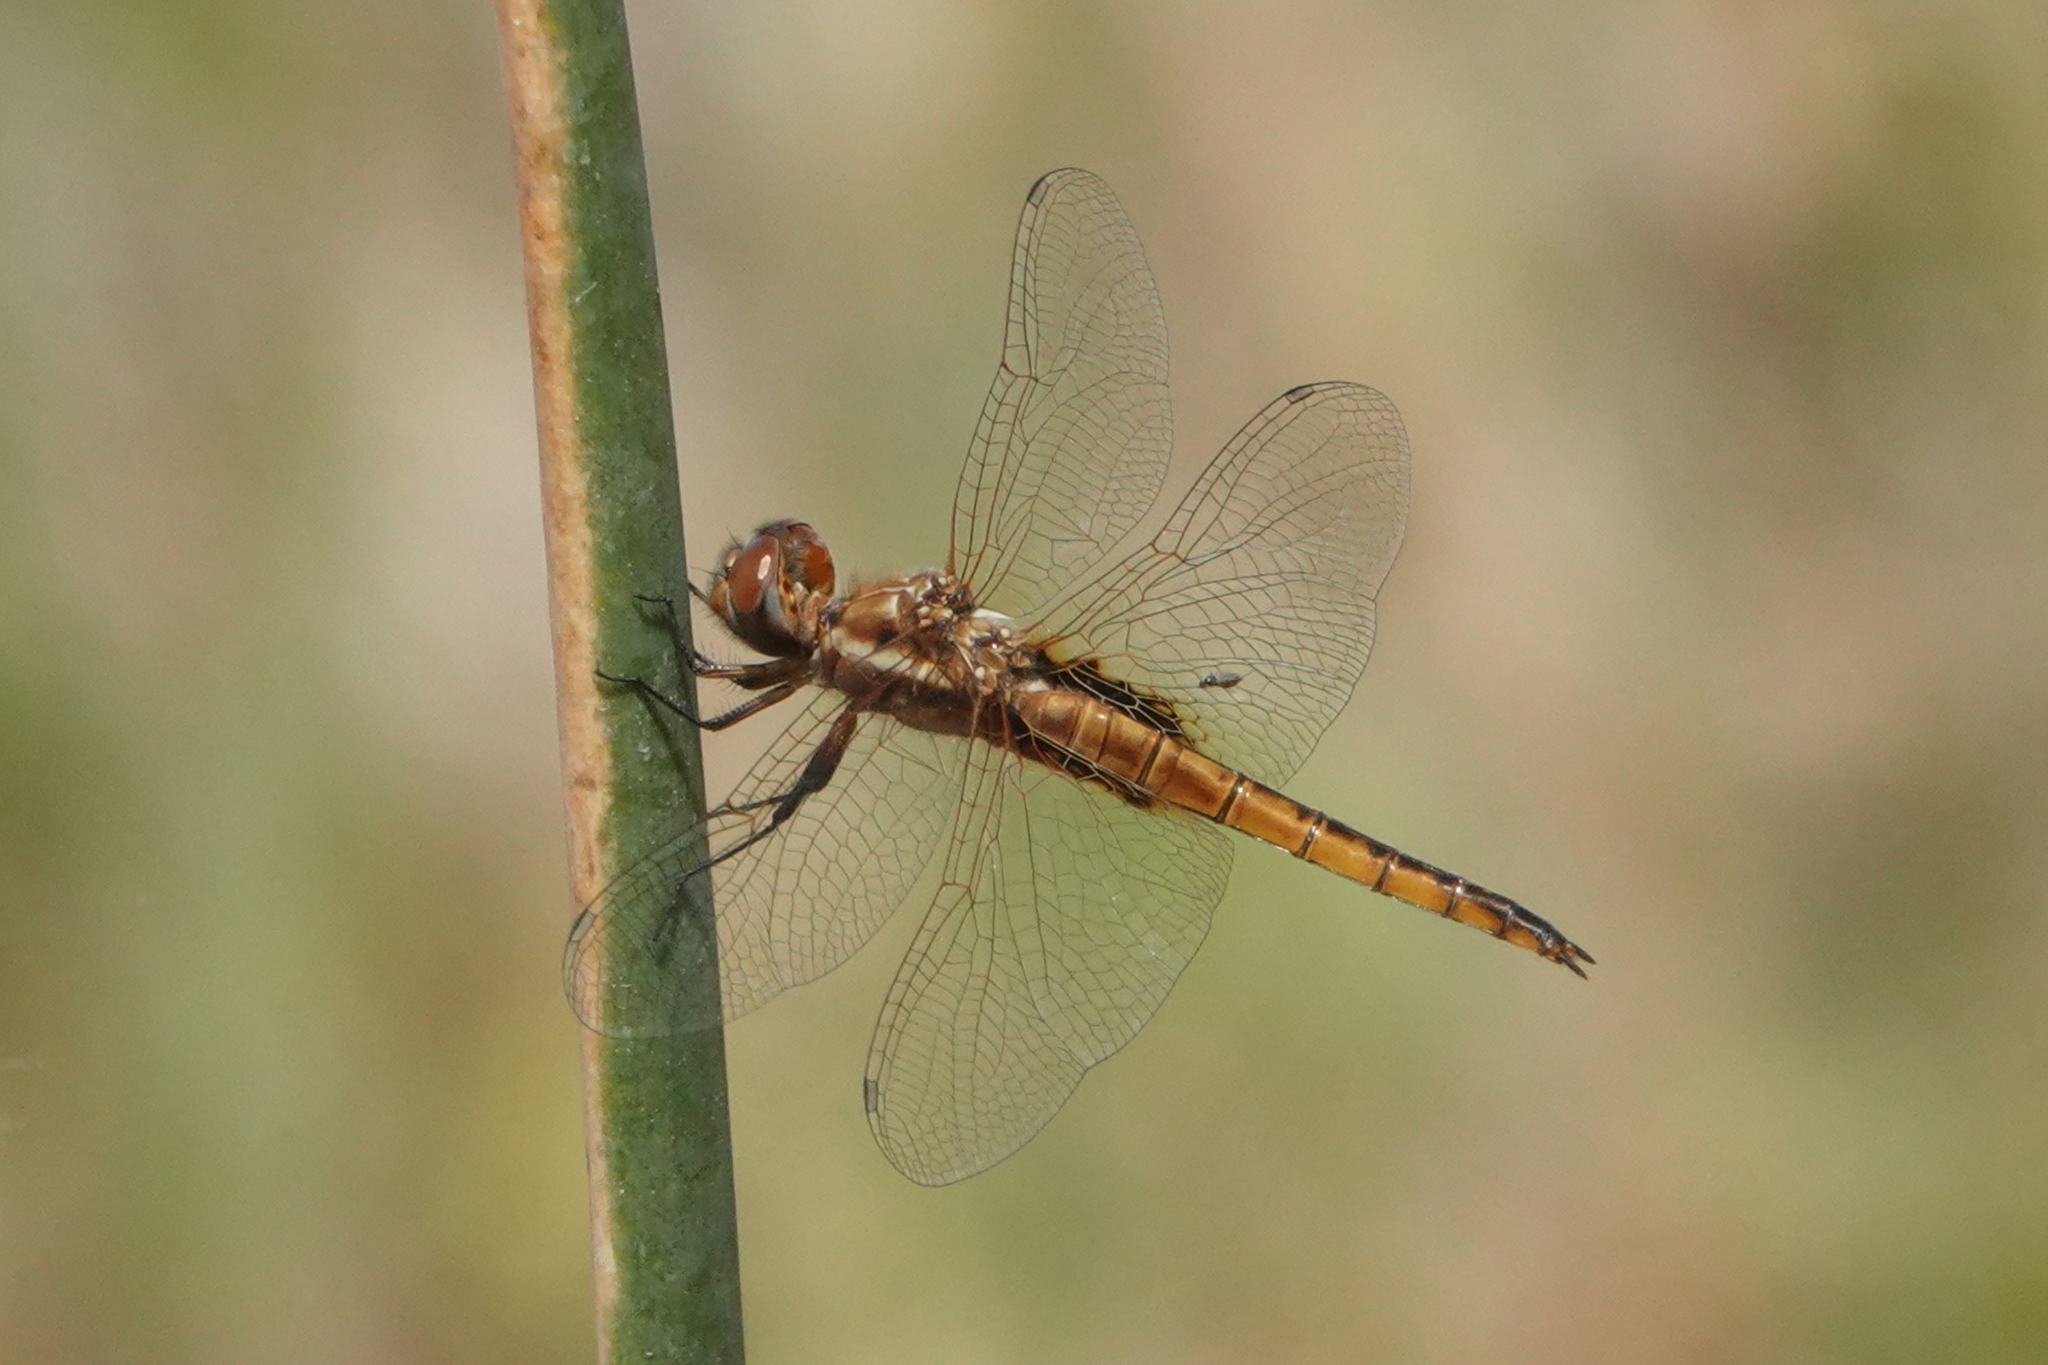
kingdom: Animalia
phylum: Arthropoda
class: Insecta
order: Odonata
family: Libellulidae
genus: Miathyria
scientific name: Miathyria marcella
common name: Hyacinth glider
